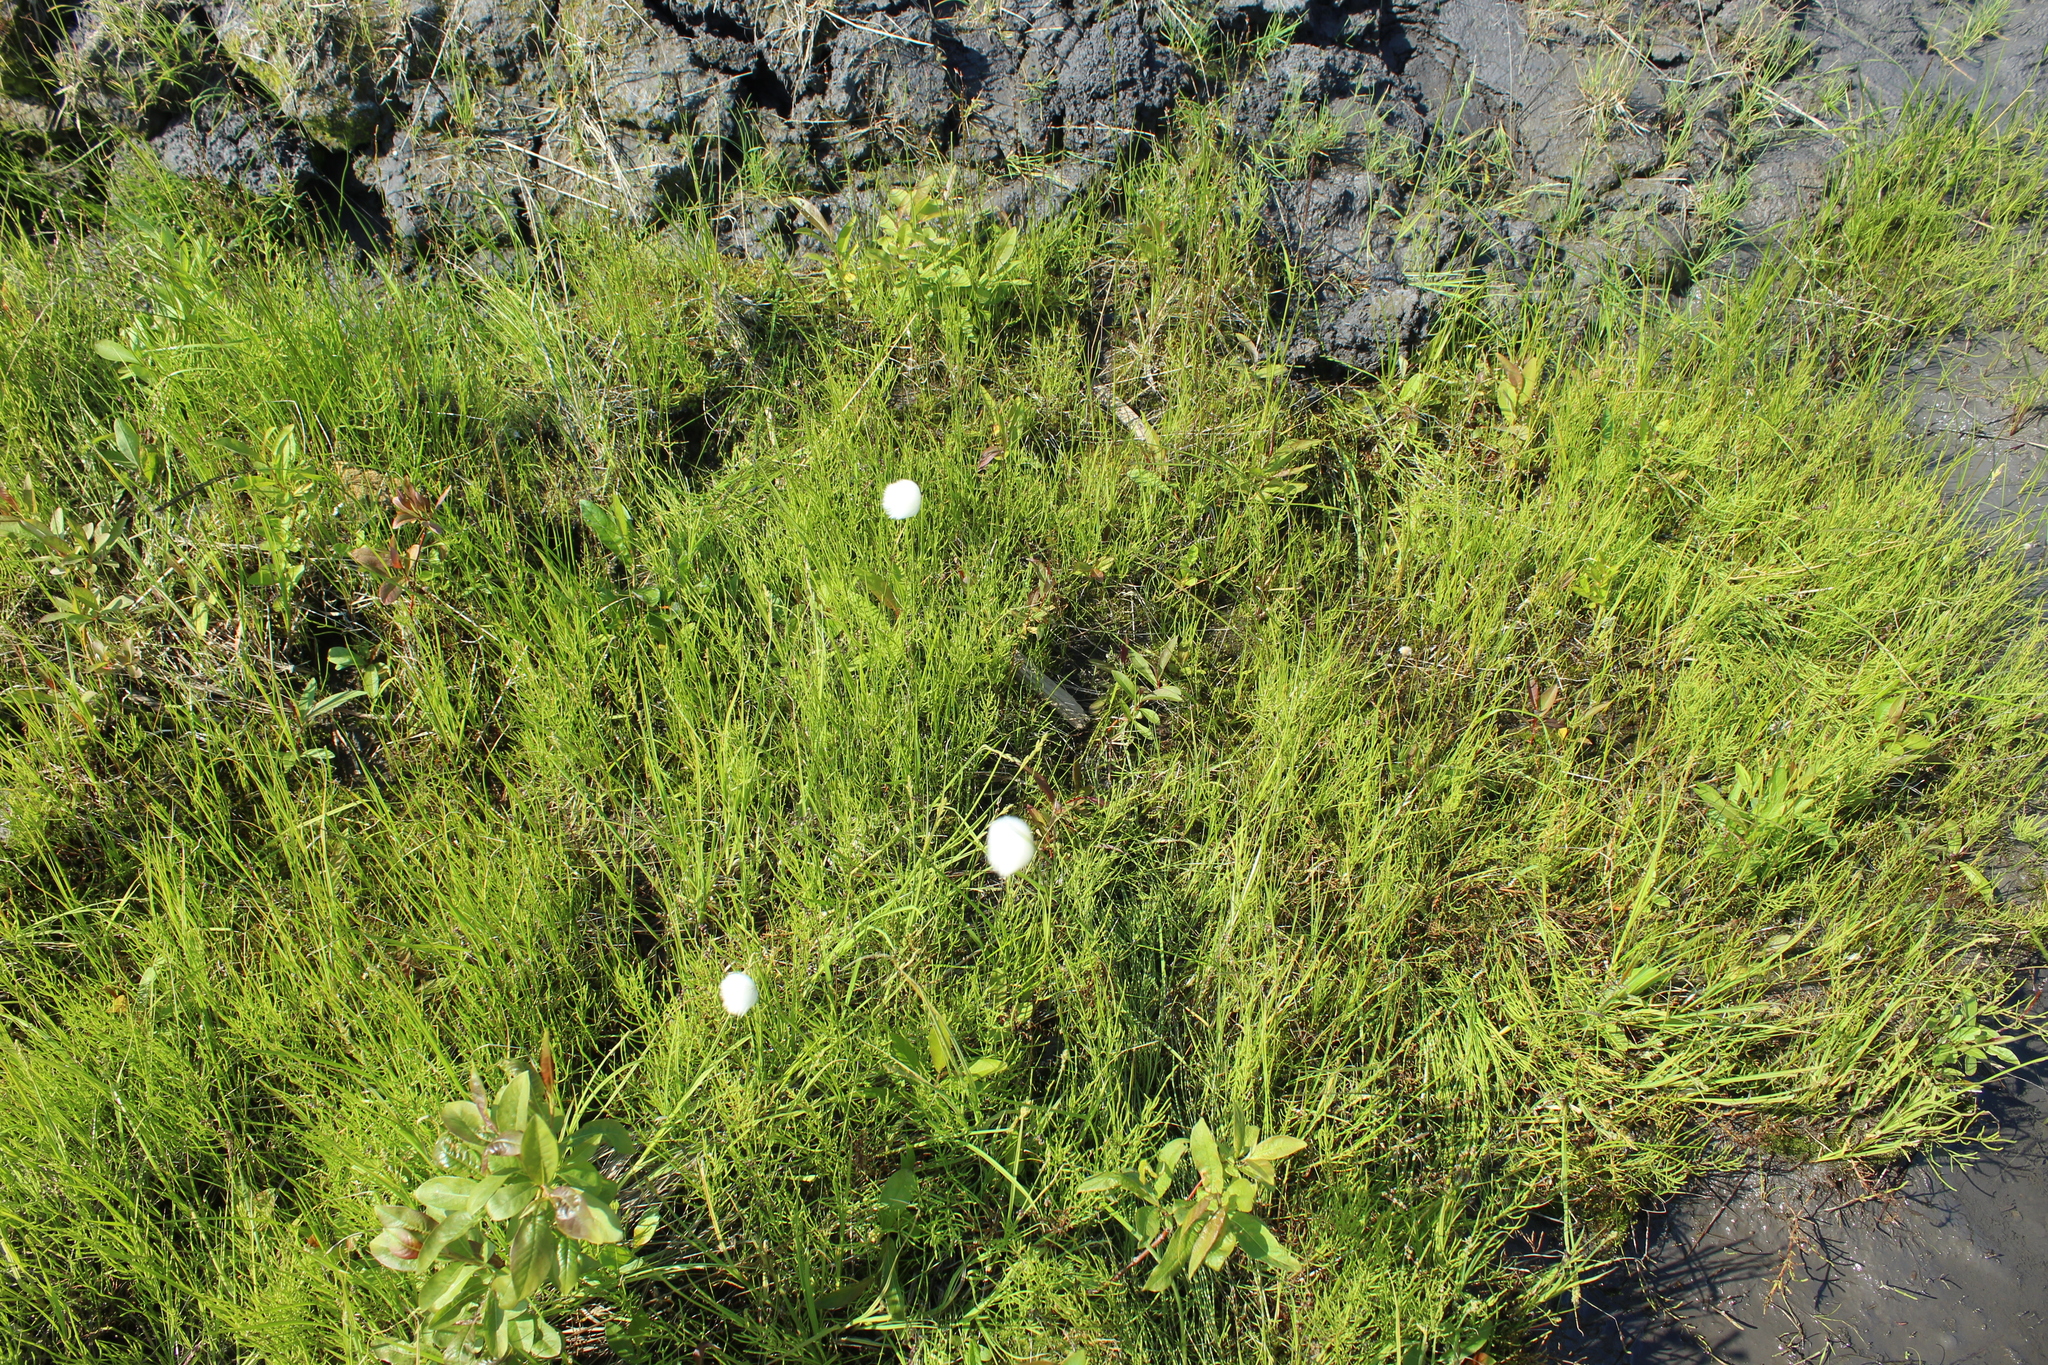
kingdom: Plantae
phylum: Tracheophyta
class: Liliopsida
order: Poales
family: Cyperaceae
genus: Eriophorum
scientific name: Eriophorum scheuchzeri
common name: Scheuchzer's cottongrass
